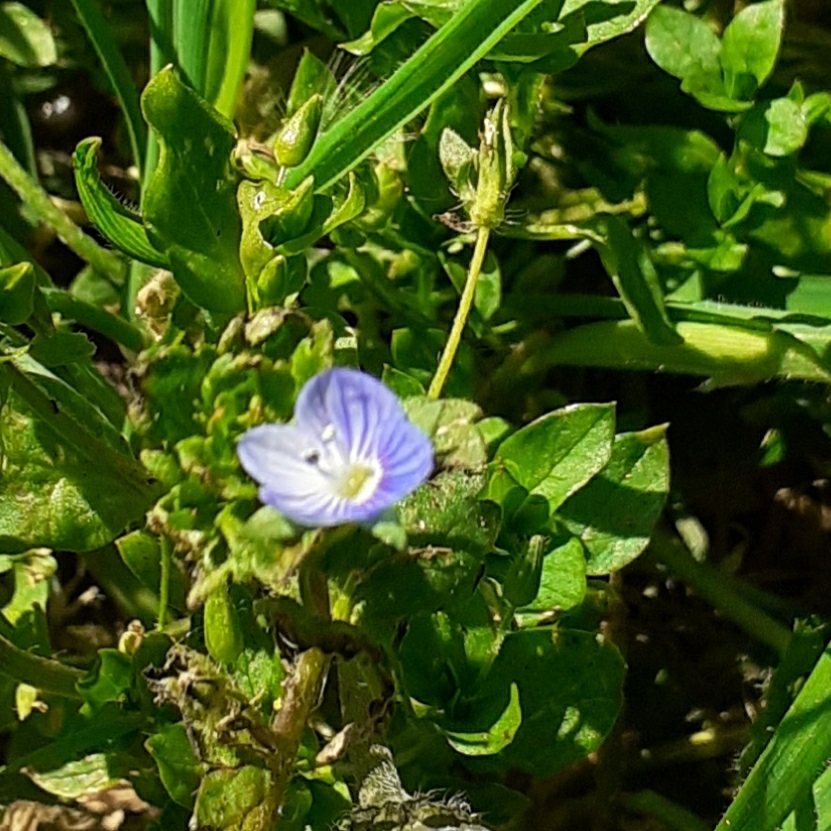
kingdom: Plantae
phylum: Tracheophyta
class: Magnoliopsida
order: Lamiales
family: Plantaginaceae
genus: Veronica
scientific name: Veronica persica
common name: Common field-speedwell
